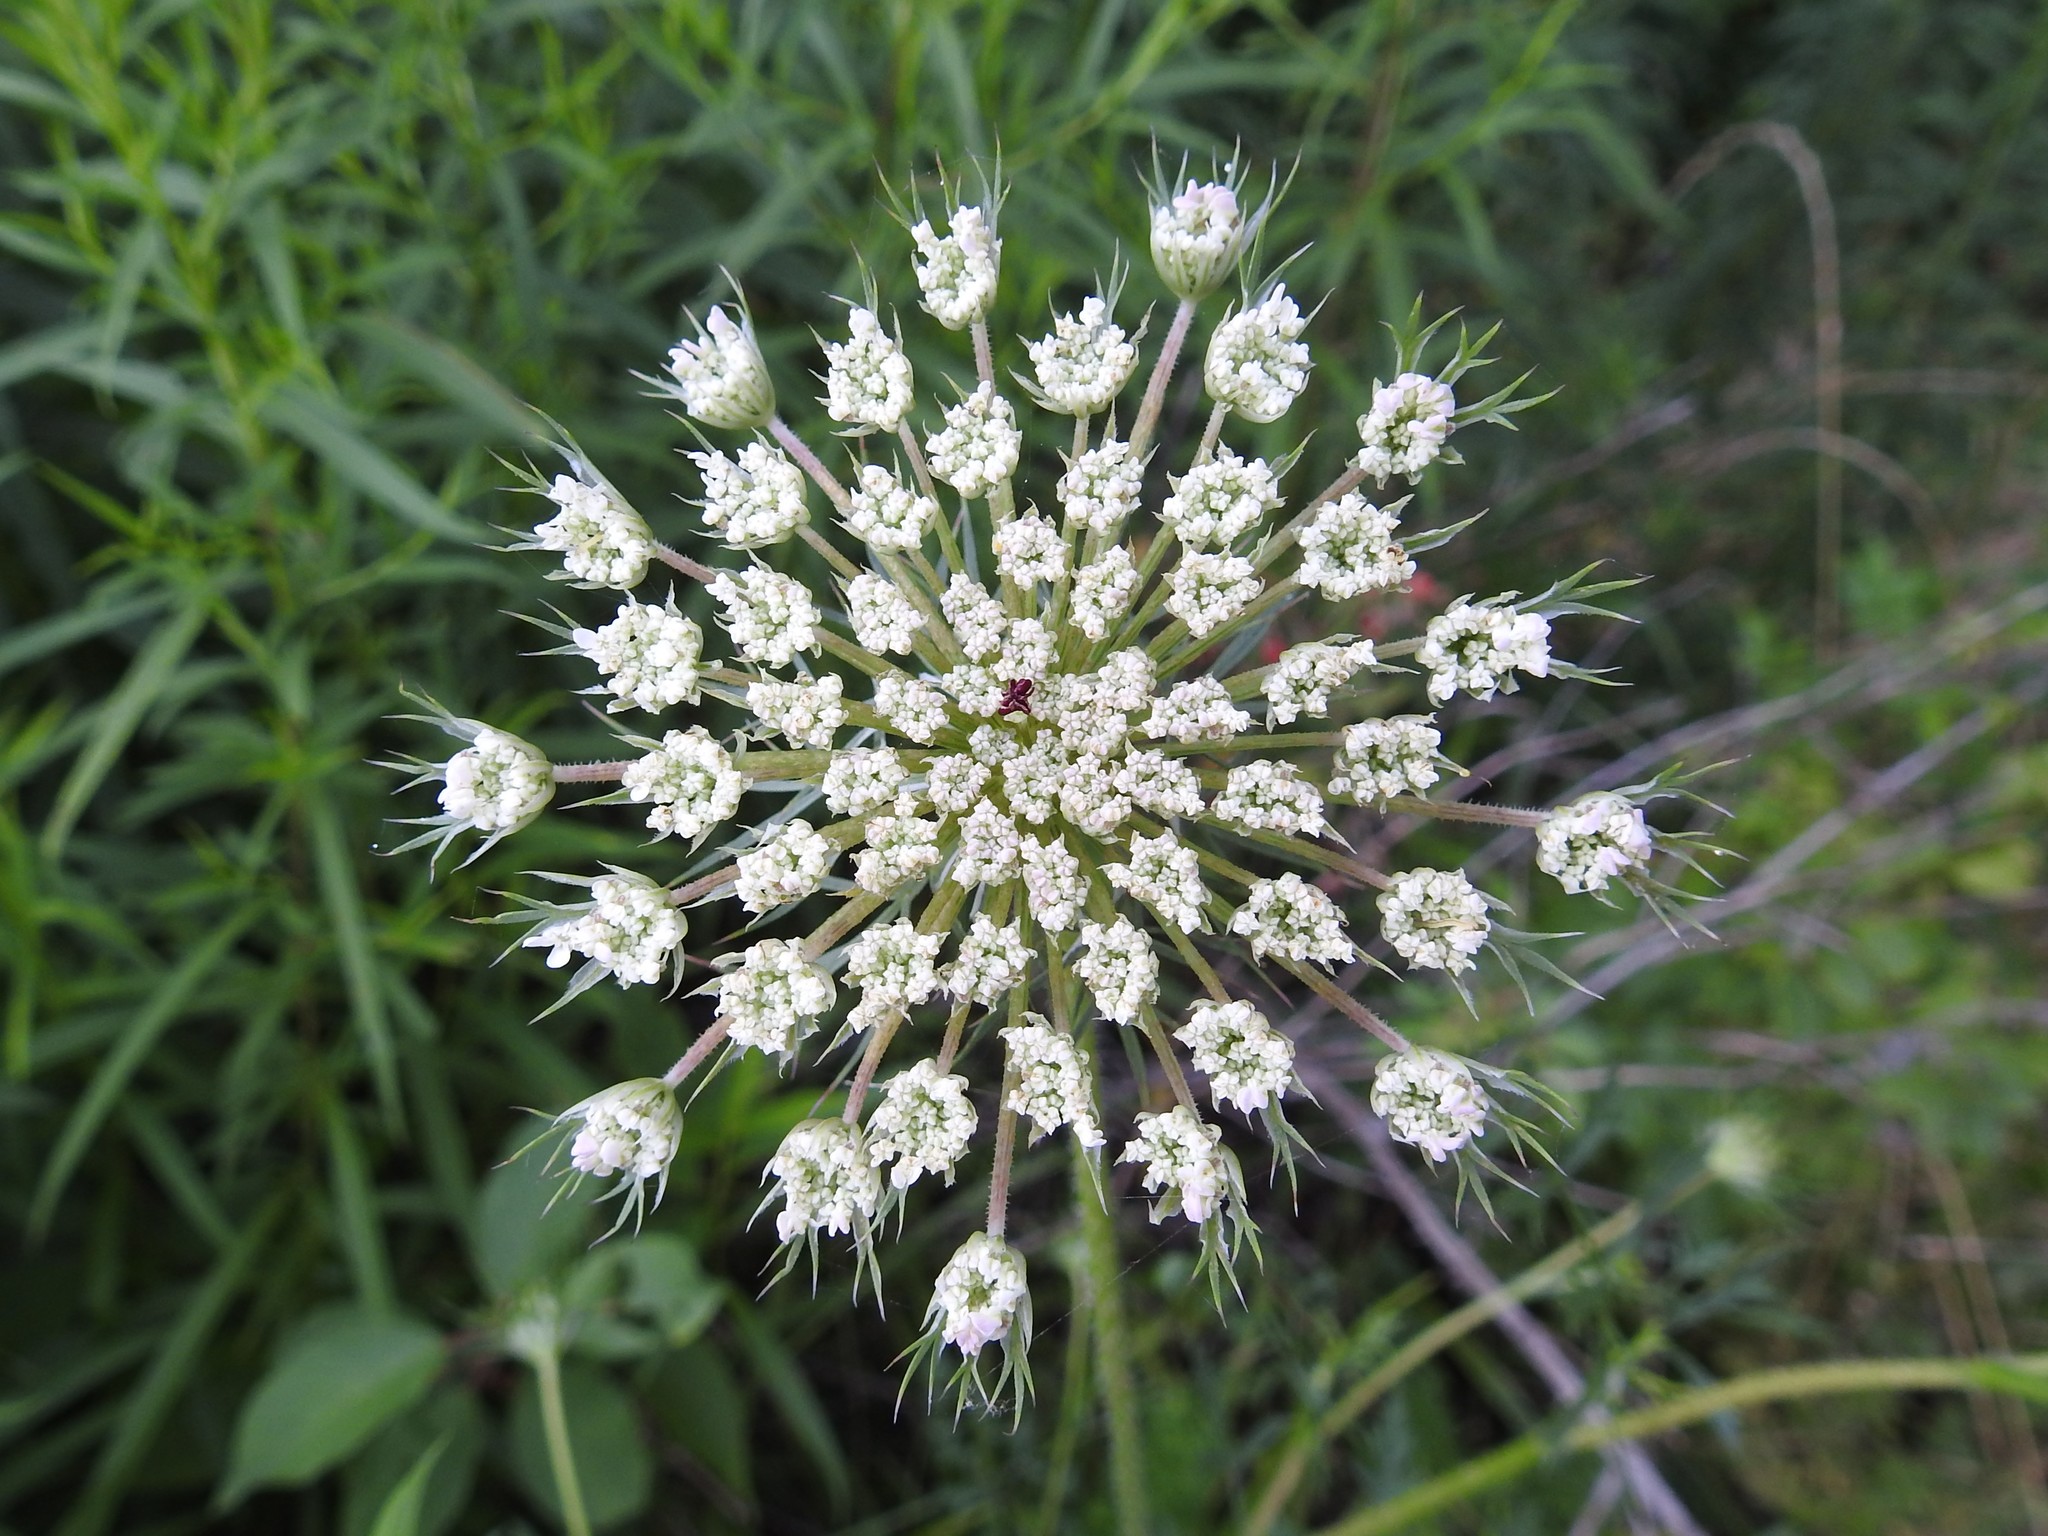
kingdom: Plantae
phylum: Tracheophyta
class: Magnoliopsida
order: Apiales
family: Apiaceae
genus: Daucus
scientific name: Daucus carota
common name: Wild carrot
